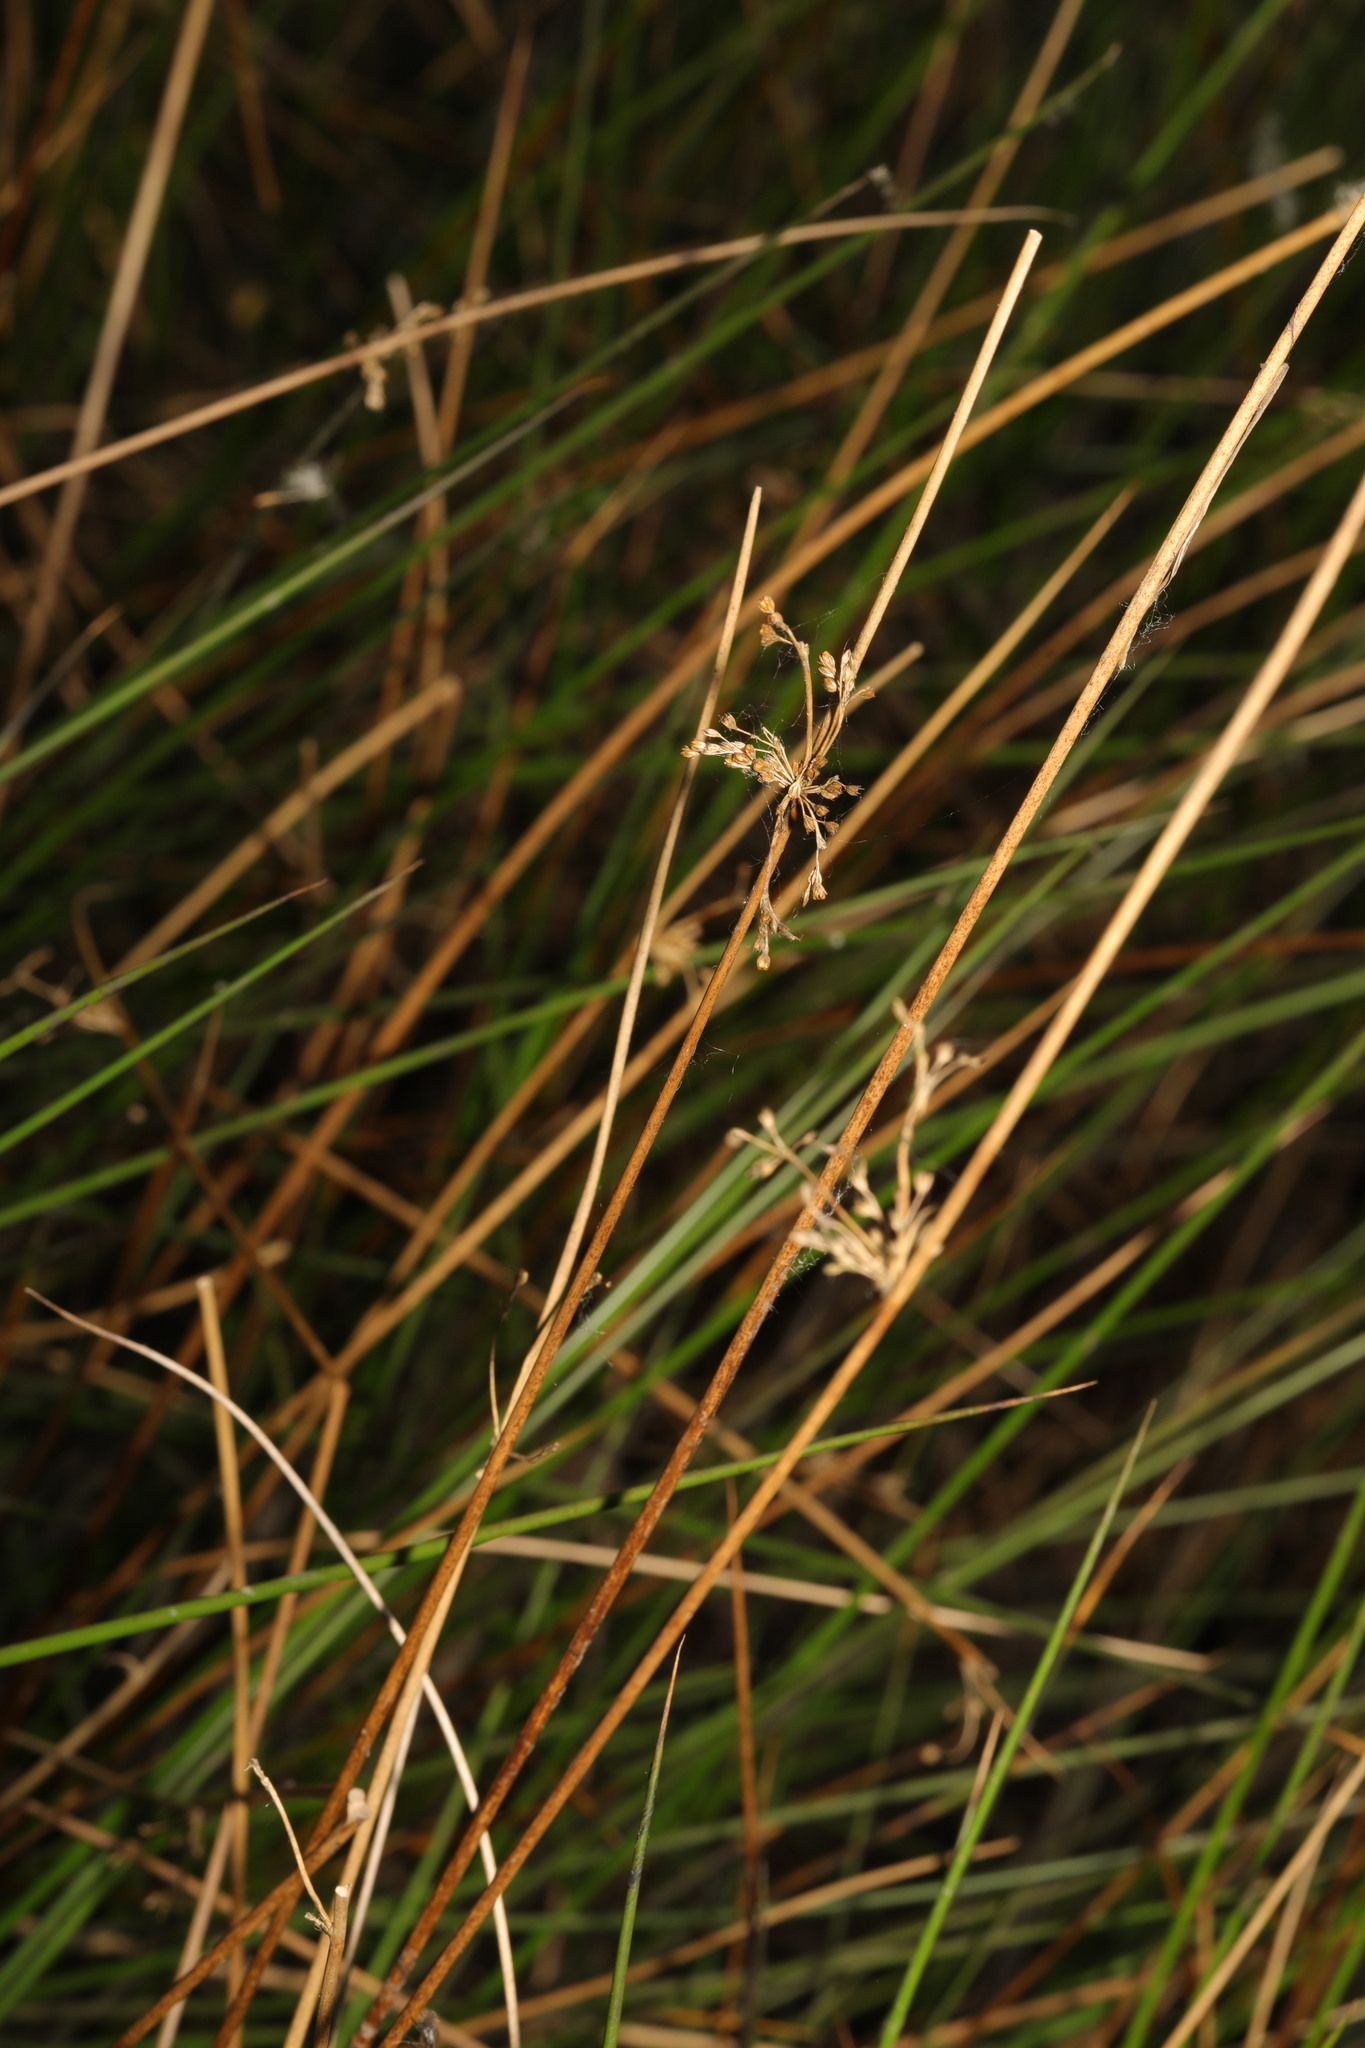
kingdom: Plantae
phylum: Tracheophyta
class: Liliopsida
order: Poales
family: Juncaceae
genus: Juncus
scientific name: Juncus effusus
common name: Soft rush
